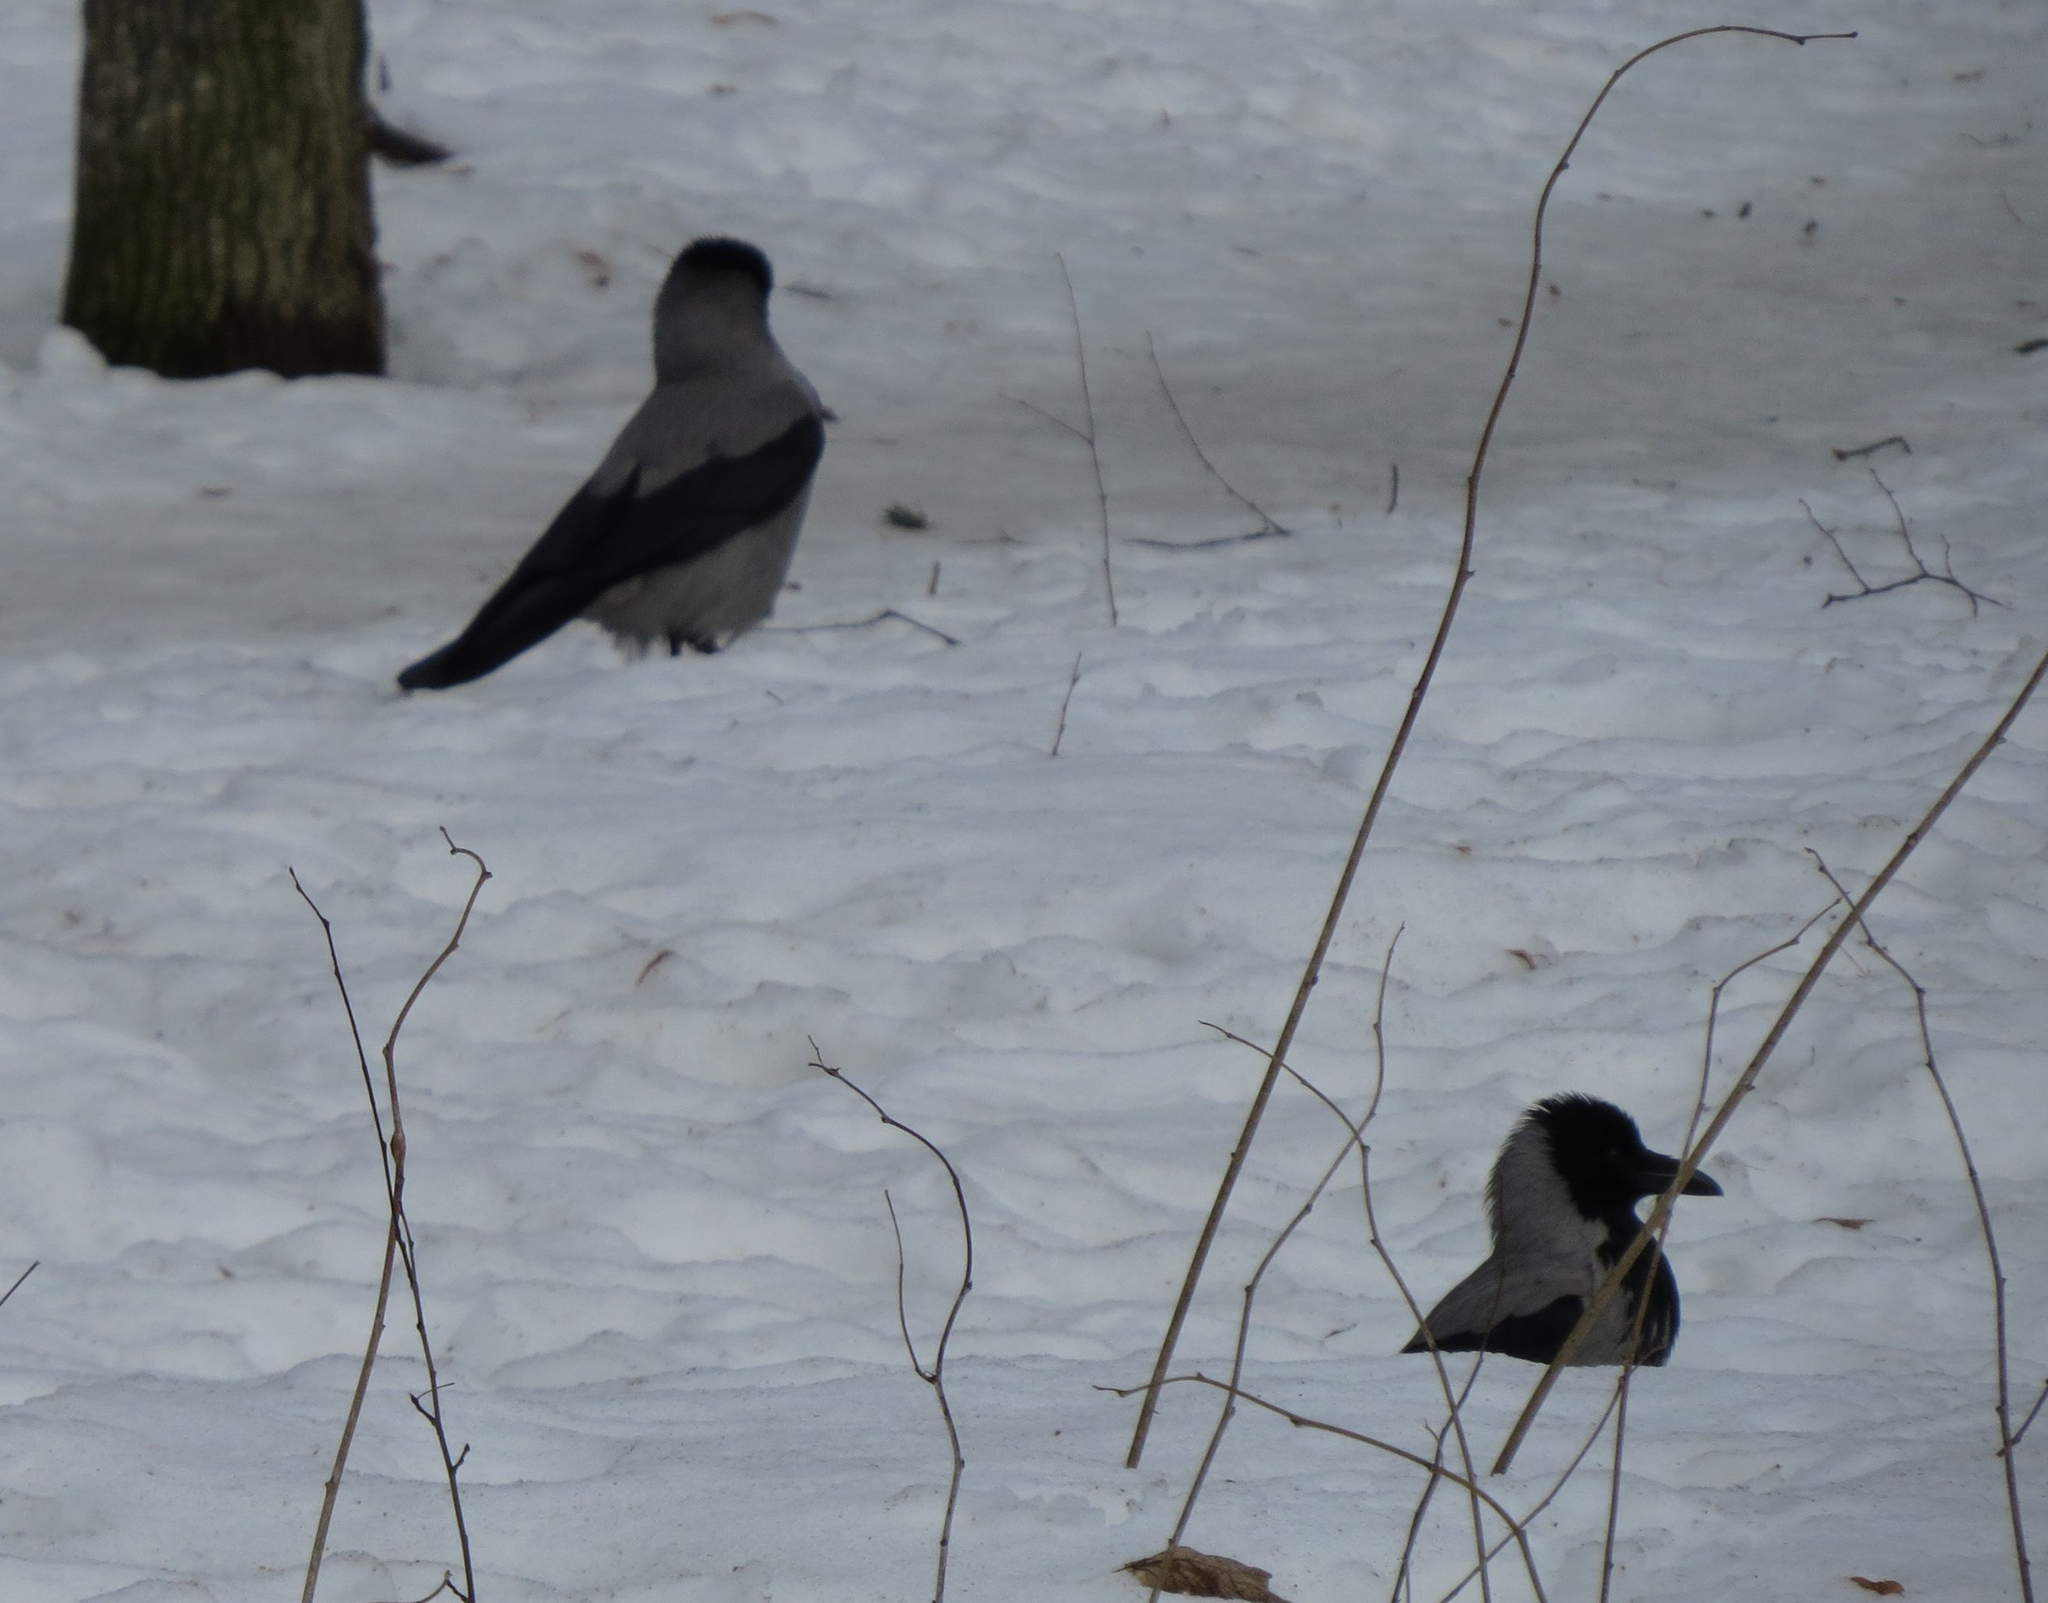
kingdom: Animalia
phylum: Chordata
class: Aves
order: Passeriformes
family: Corvidae
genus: Corvus
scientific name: Corvus cornix
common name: Hooded crow
